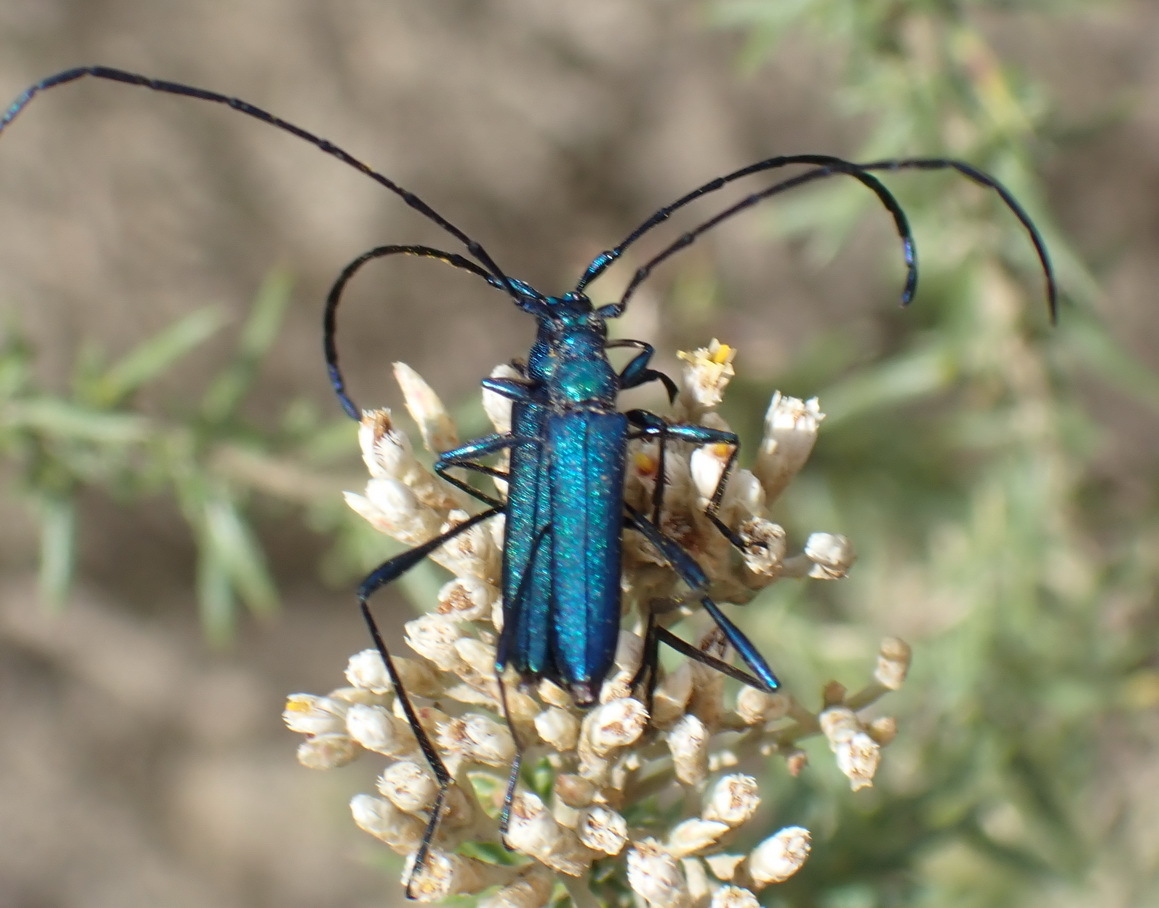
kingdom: Animalia
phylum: Arthropoda
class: Insecta
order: Coleoptera
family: Cerambycidae
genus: Promeces
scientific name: Promeces longipes
